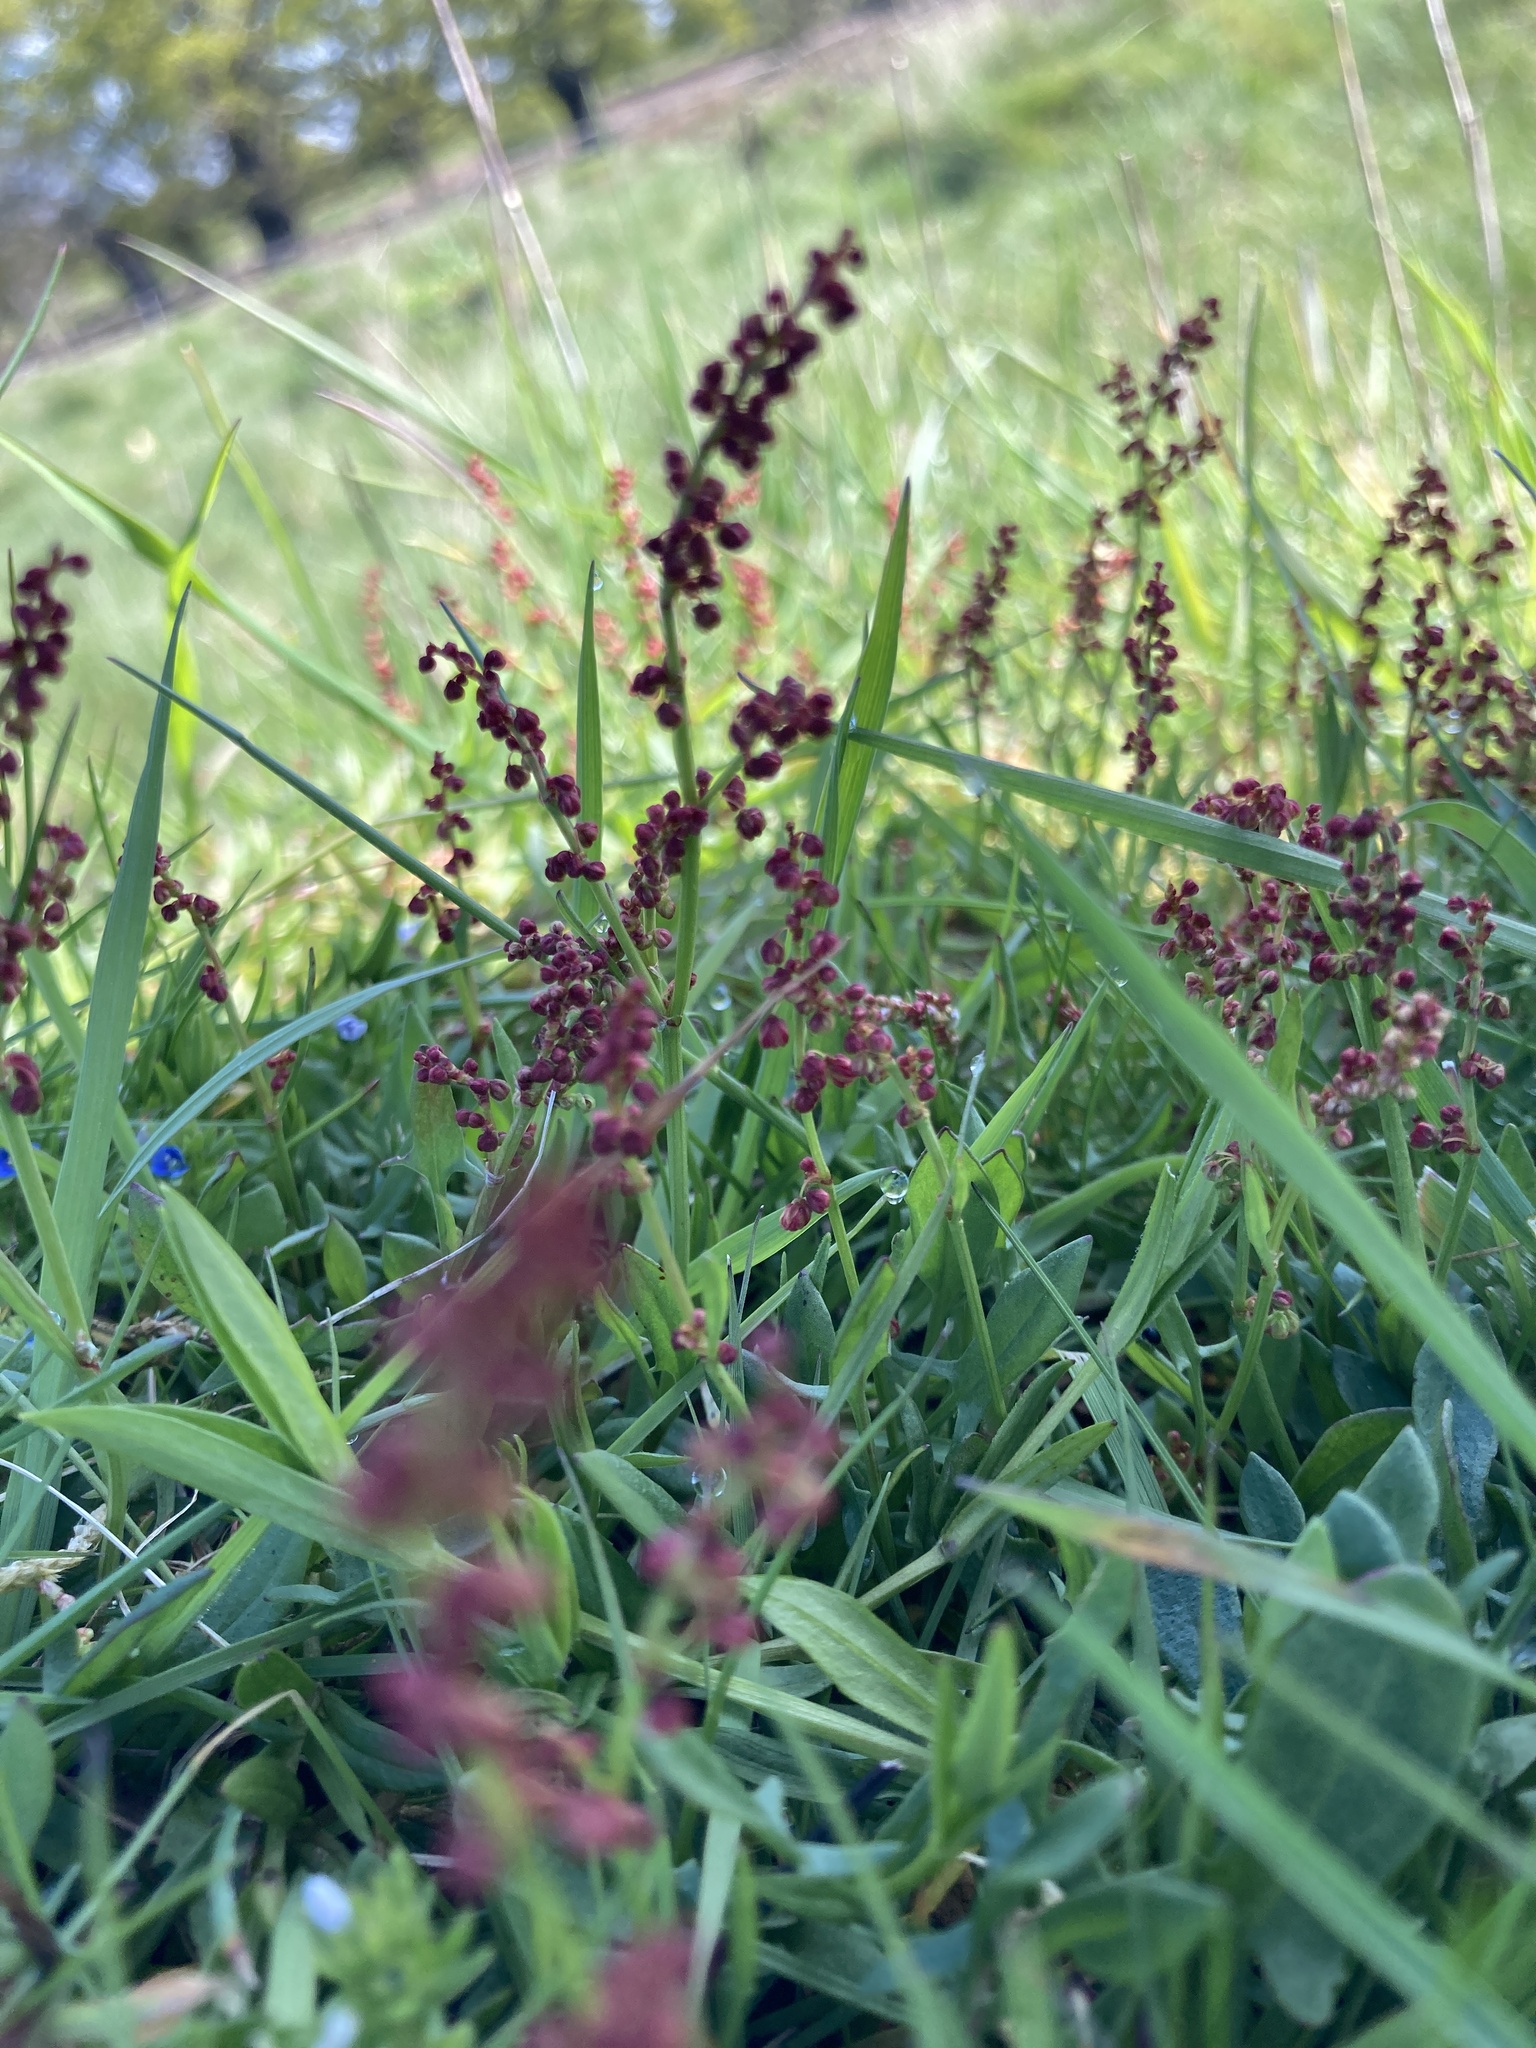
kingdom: Plantae
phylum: Tracheophyta
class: Magnoliopsida
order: Caryophyllales
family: Polygonaceae
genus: Rumex
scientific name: Rumex acetosella
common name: Common sheep sorrel
